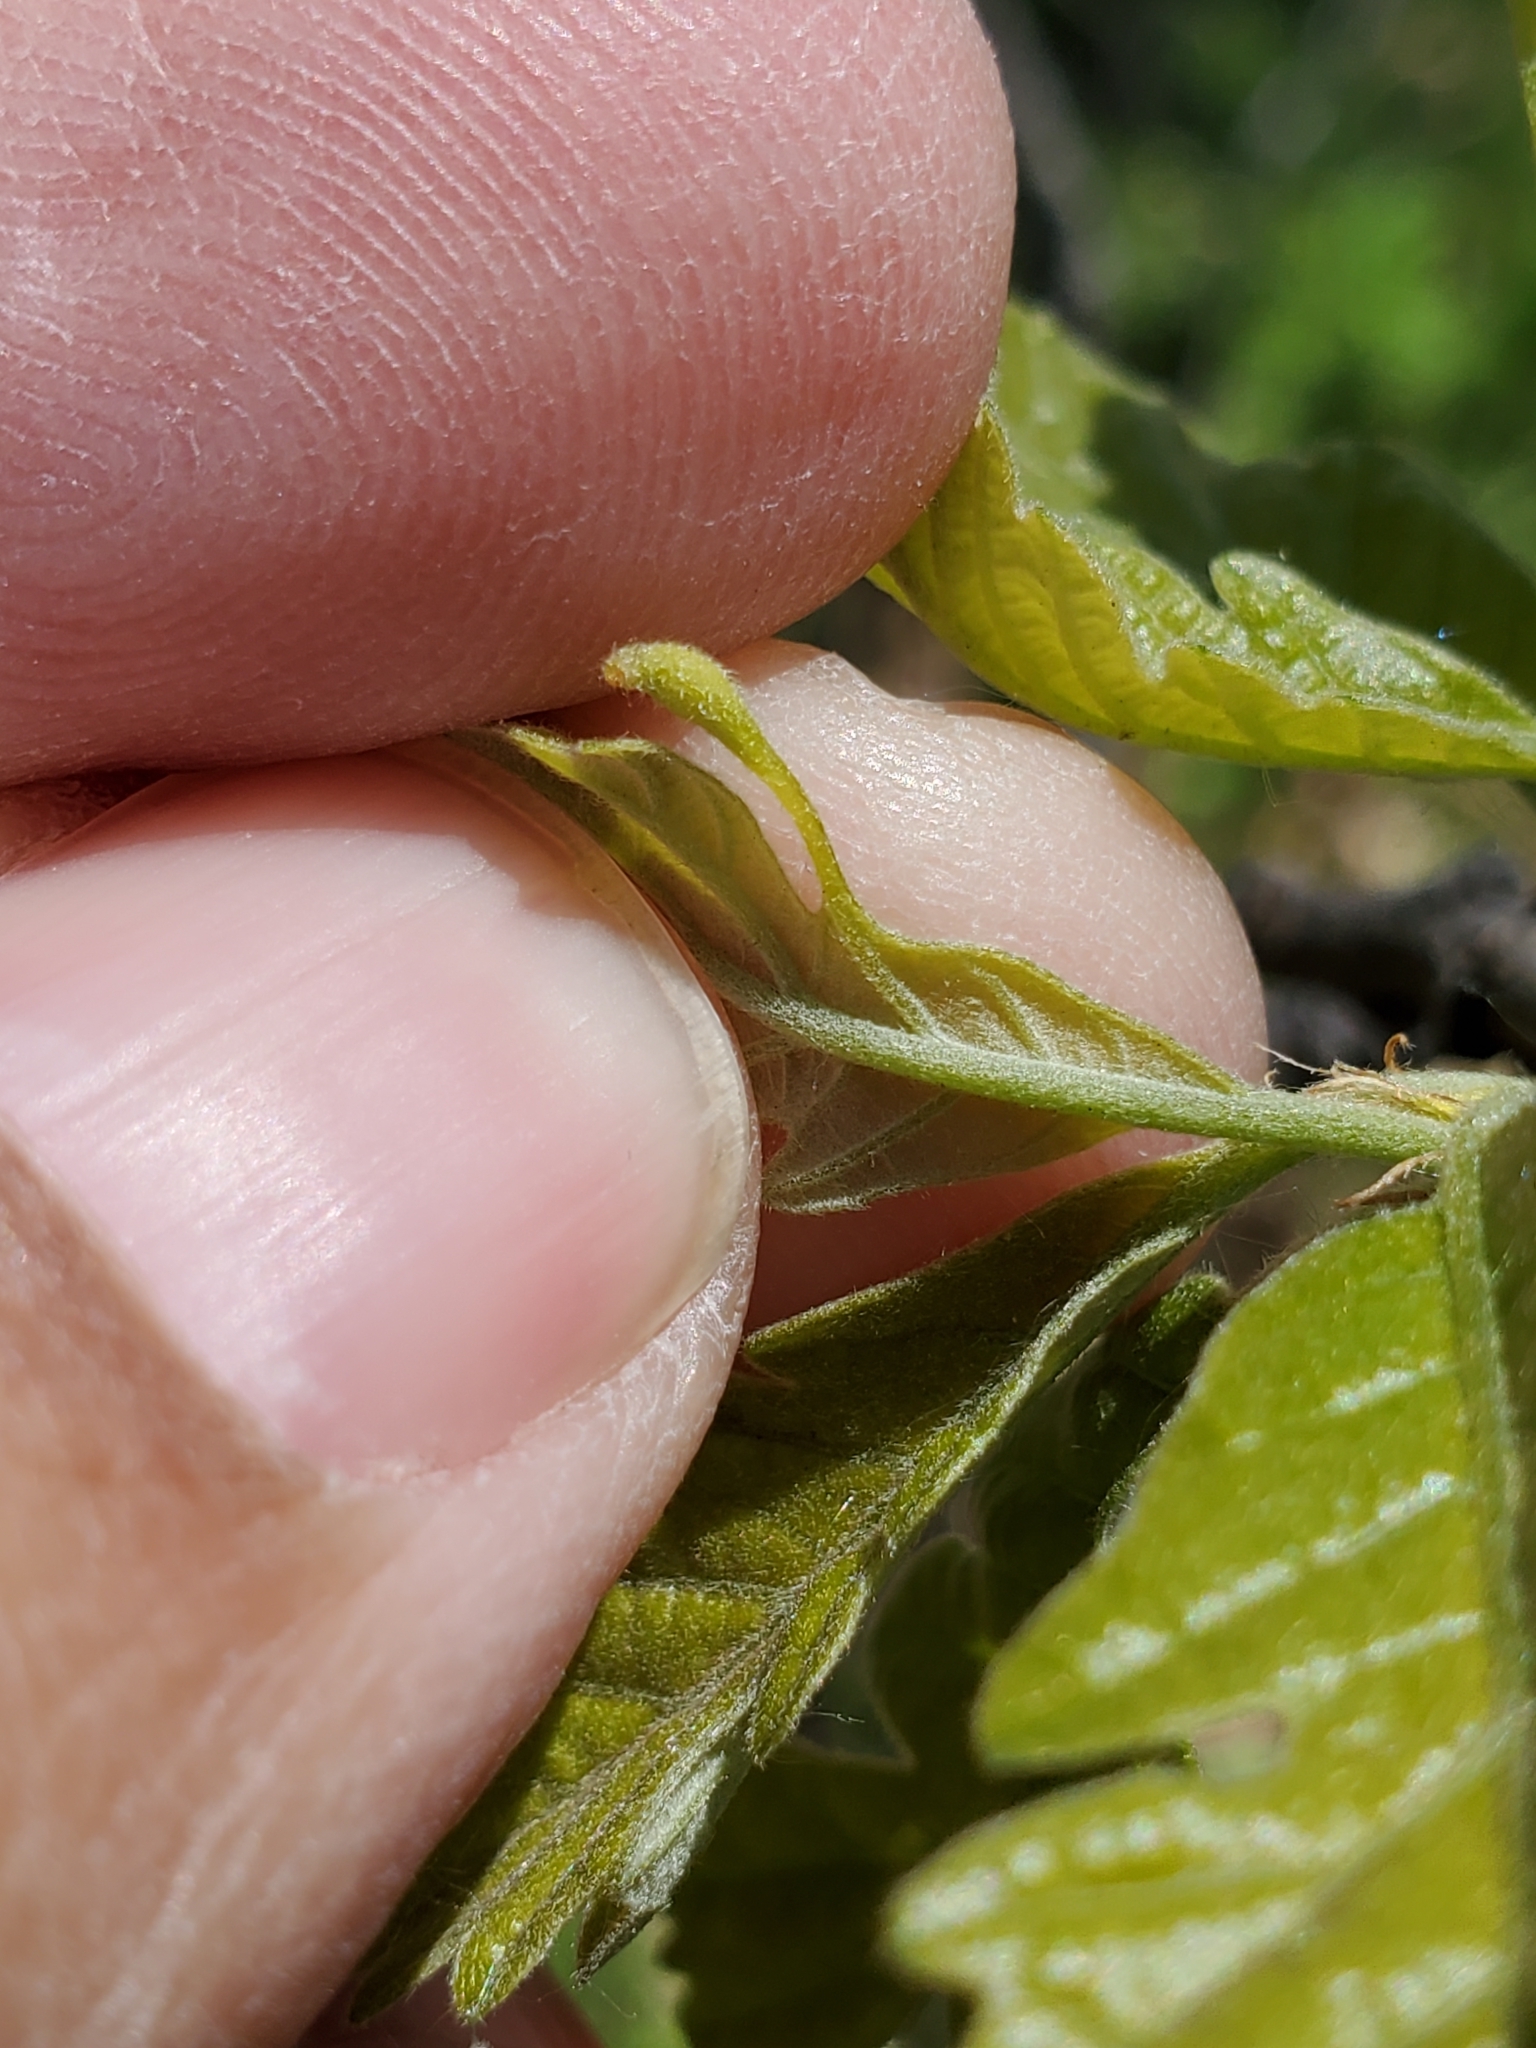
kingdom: Animalia
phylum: Arthropoda
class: Insecta
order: Hymenoptera
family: Cynipidae
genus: Andricus
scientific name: Andricus
